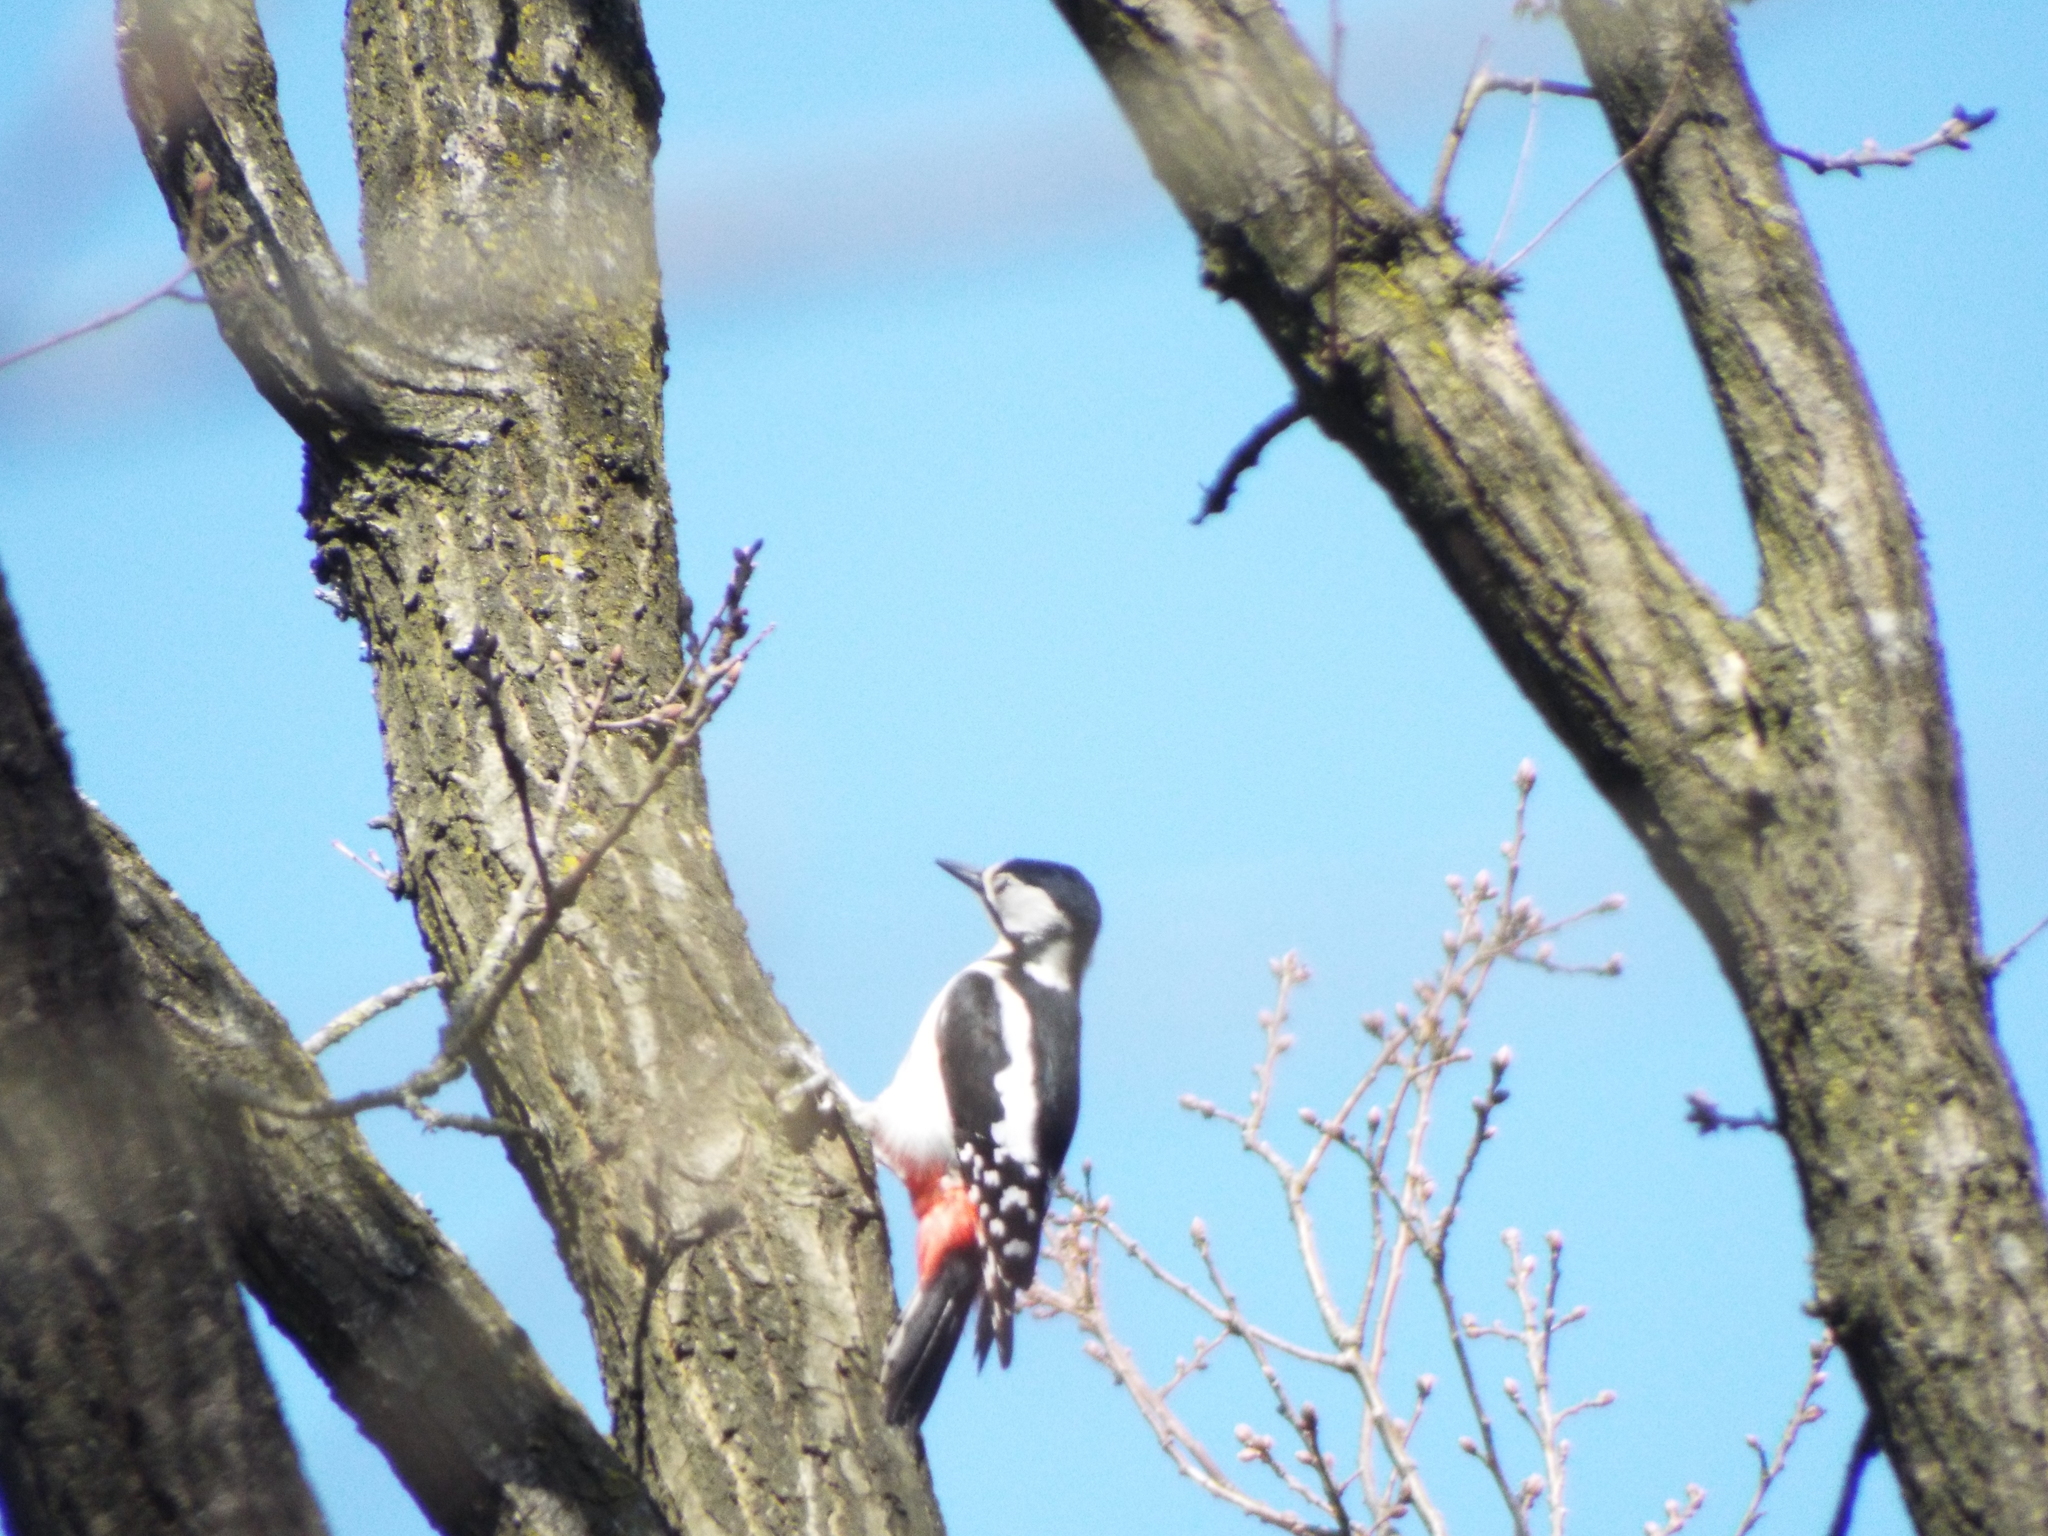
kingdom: Animalia
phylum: Chordata
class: Aves
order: Piciformes
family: Picidae
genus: Dendrocopos
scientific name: Dendrocopos major
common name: Great spotted woodpecker
